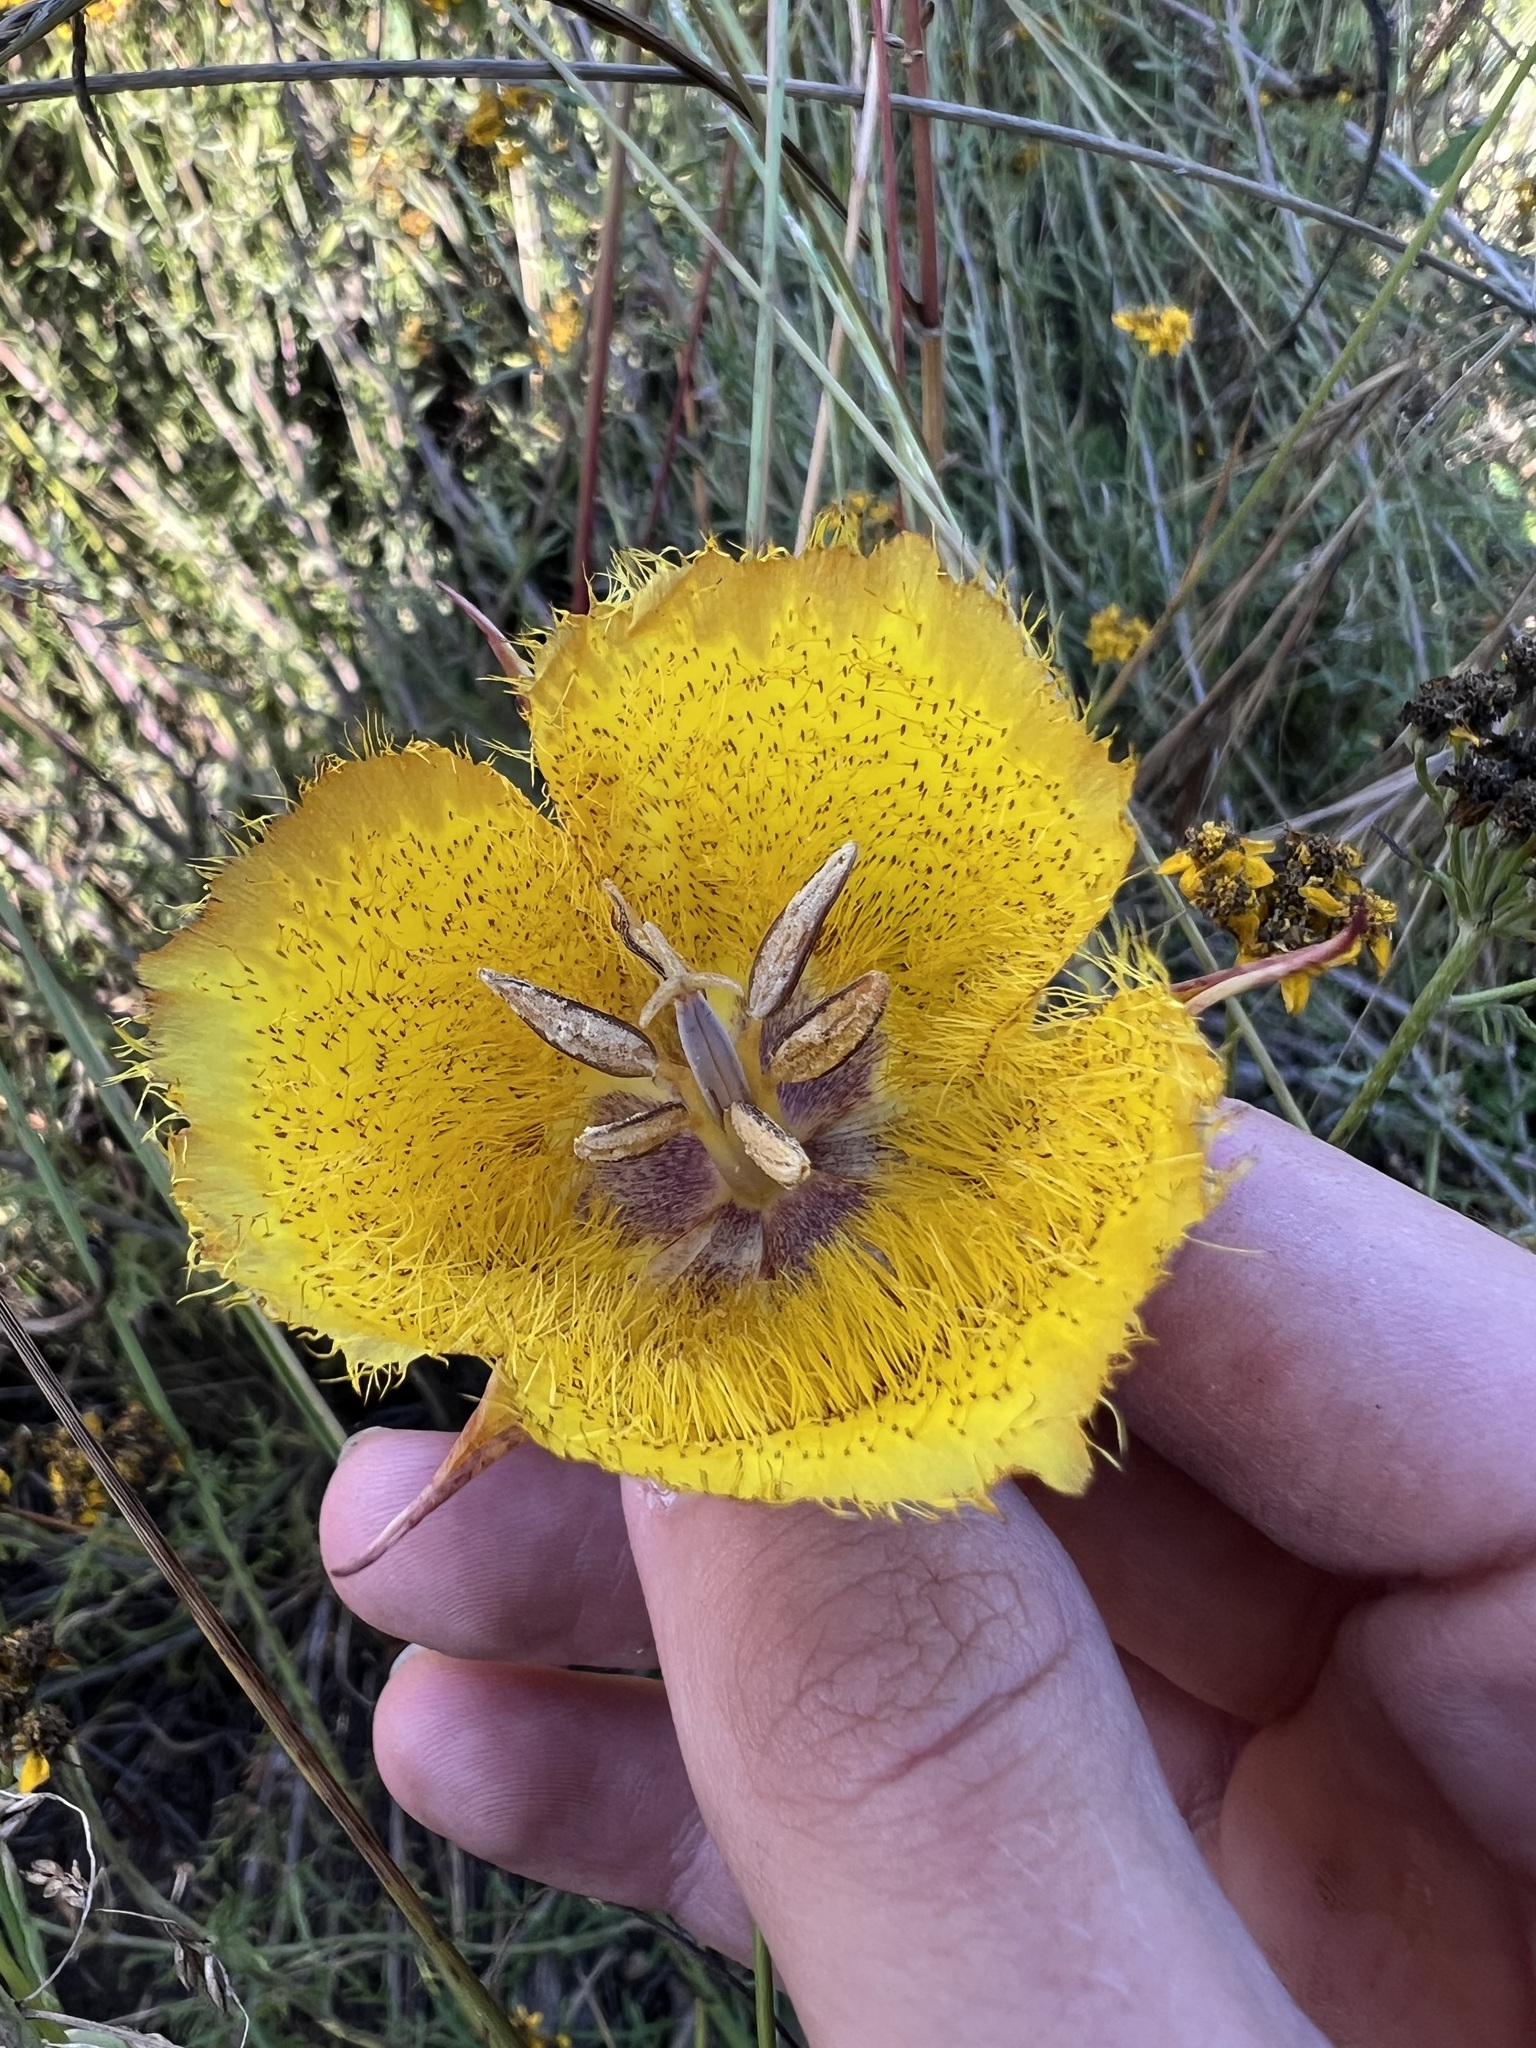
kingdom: Plantae
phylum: Tracheophyta
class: Liliopsida
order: Liliales
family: Liliaceae
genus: Calochortus
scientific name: Calochortus weedii
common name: Weed's mariposa-lily
